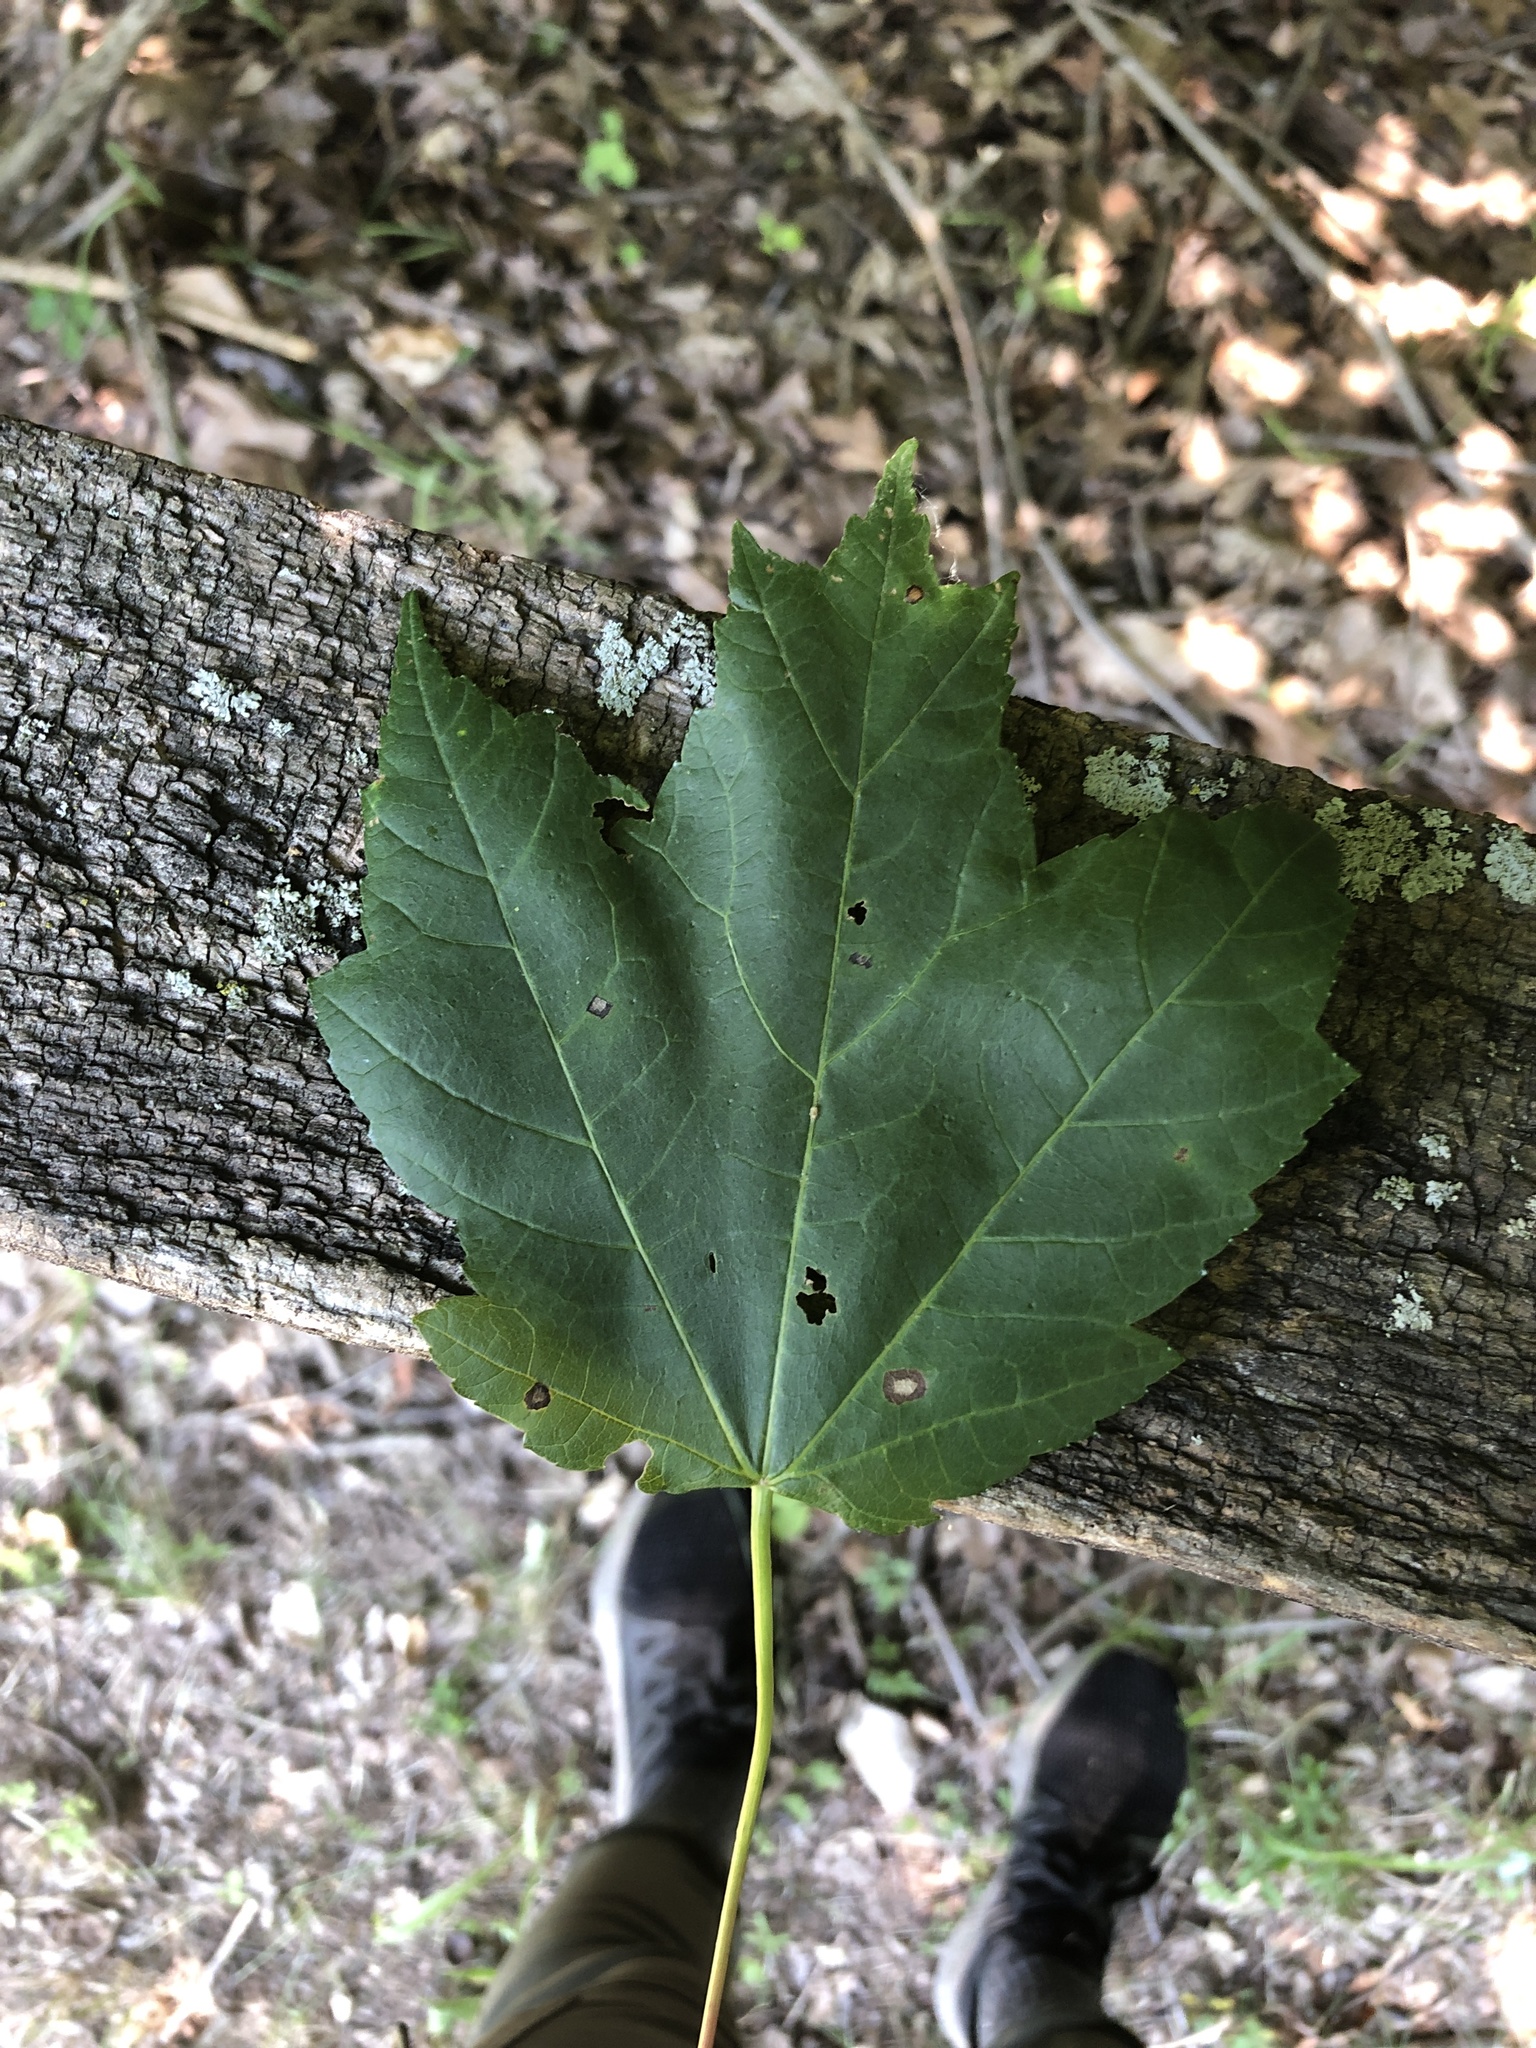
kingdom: Plantae
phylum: Tracheophyta
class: Magnoliopsida
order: Sapindales
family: Sapindaceae
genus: Acer
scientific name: Acer rubrum
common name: Red maple
